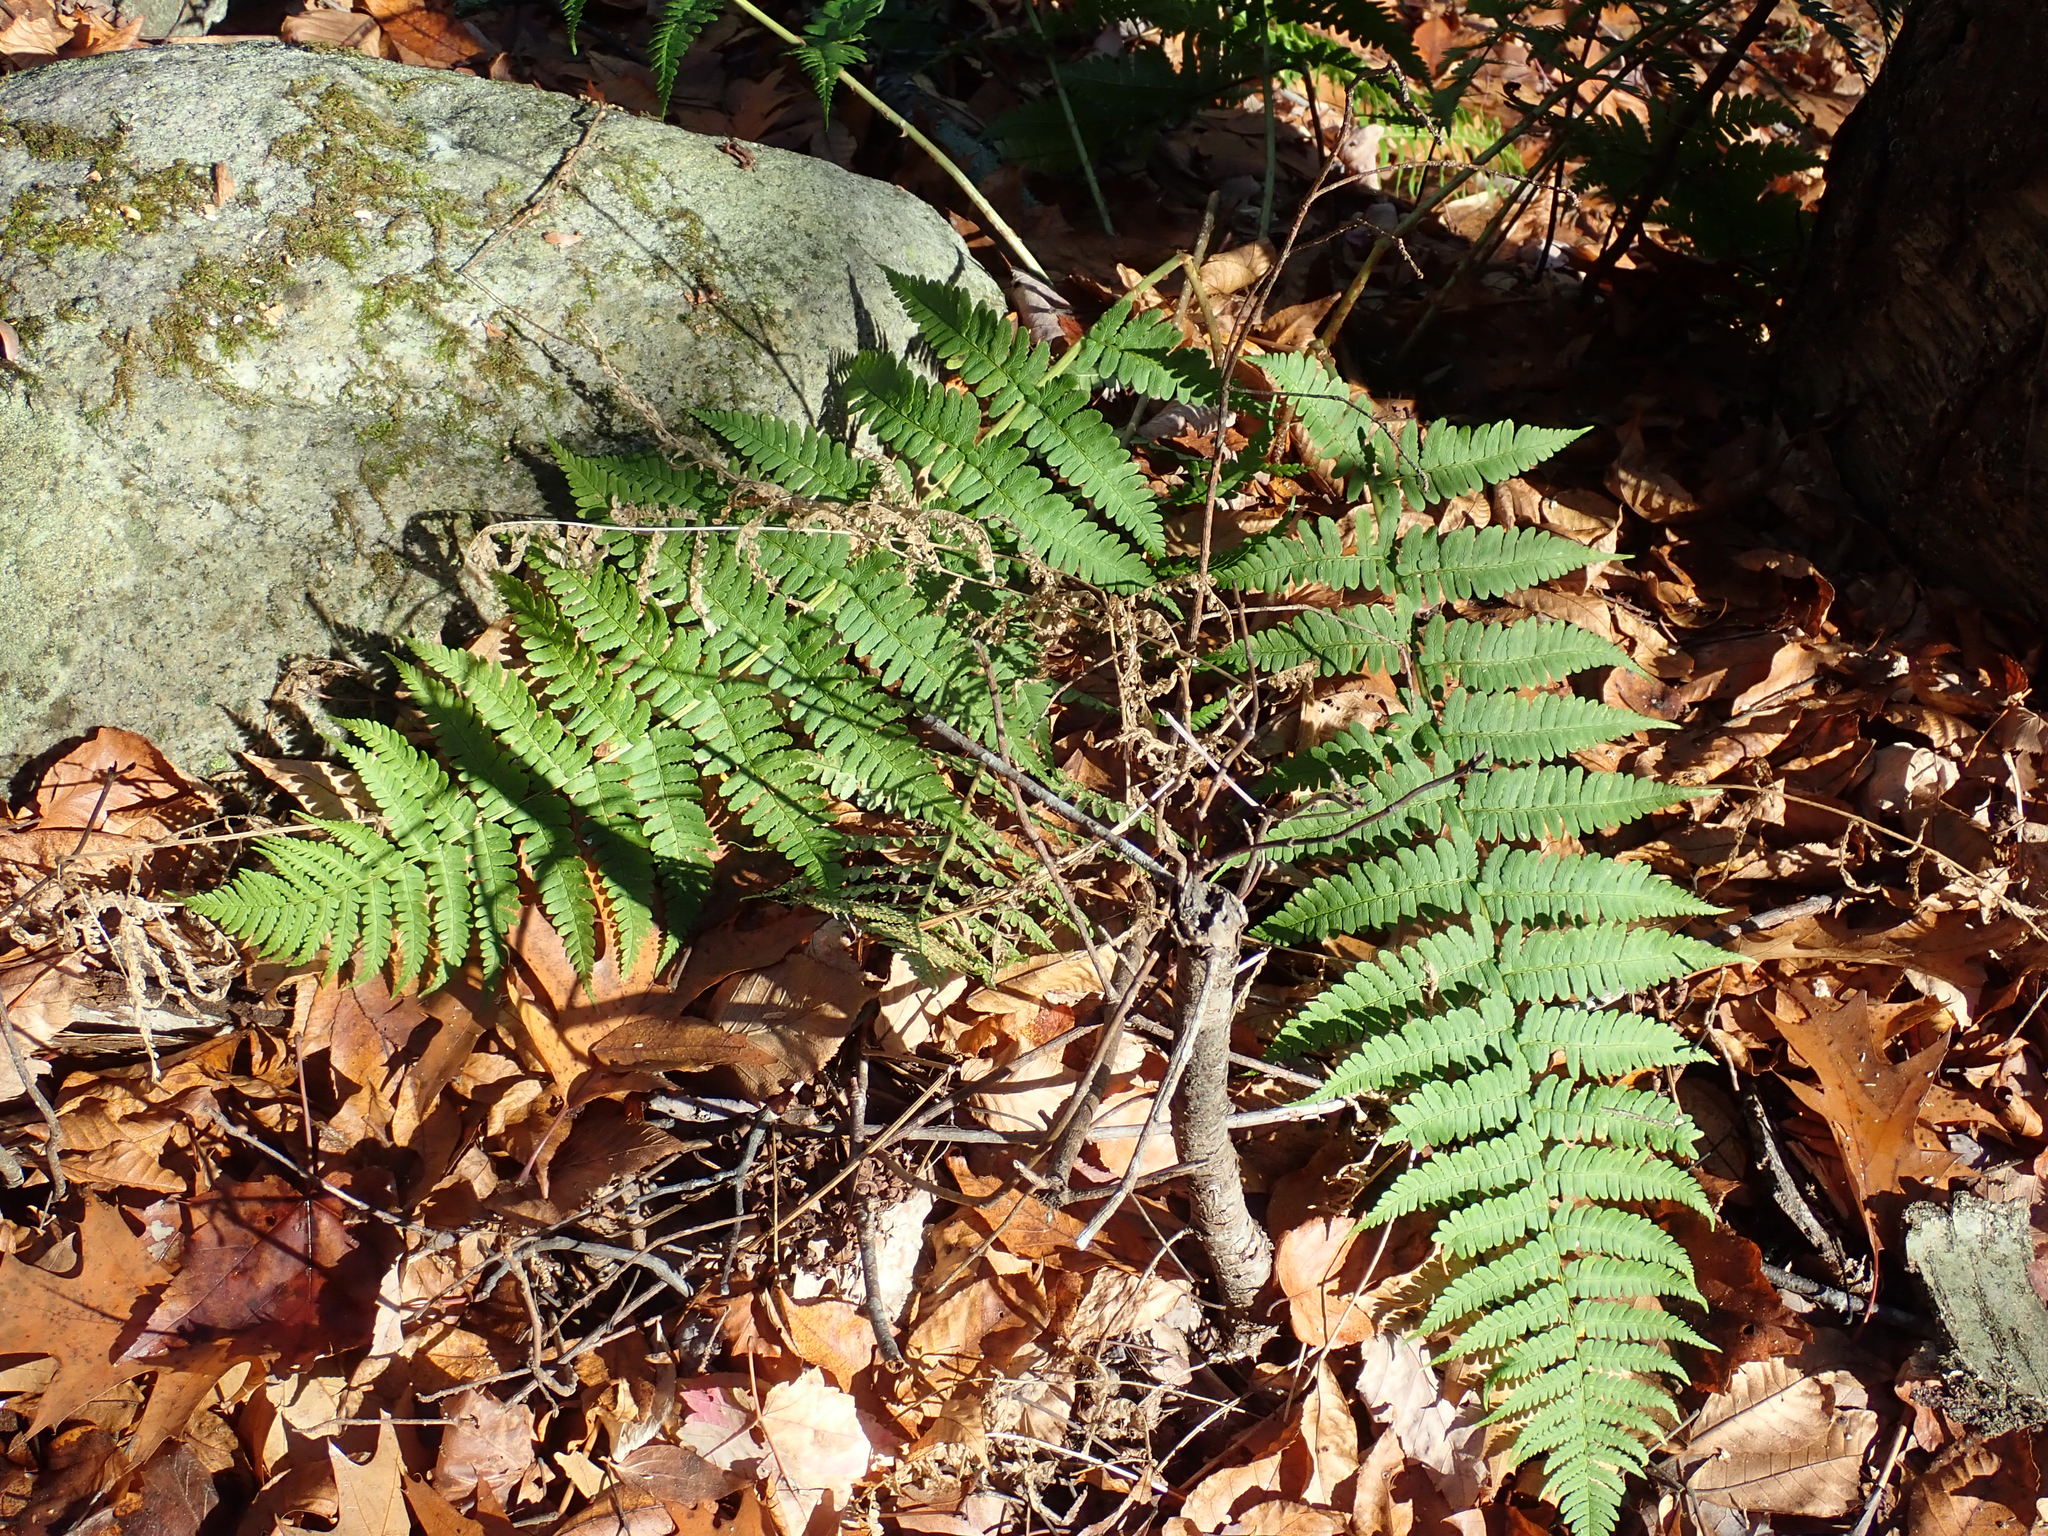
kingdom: Plantae
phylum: Tracheophyta
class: Polypodiopsida
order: Polypodiales
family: Dryopteridaceae
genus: Dryopteris
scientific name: Dryopteris marginalis
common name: Marginal wood fern
